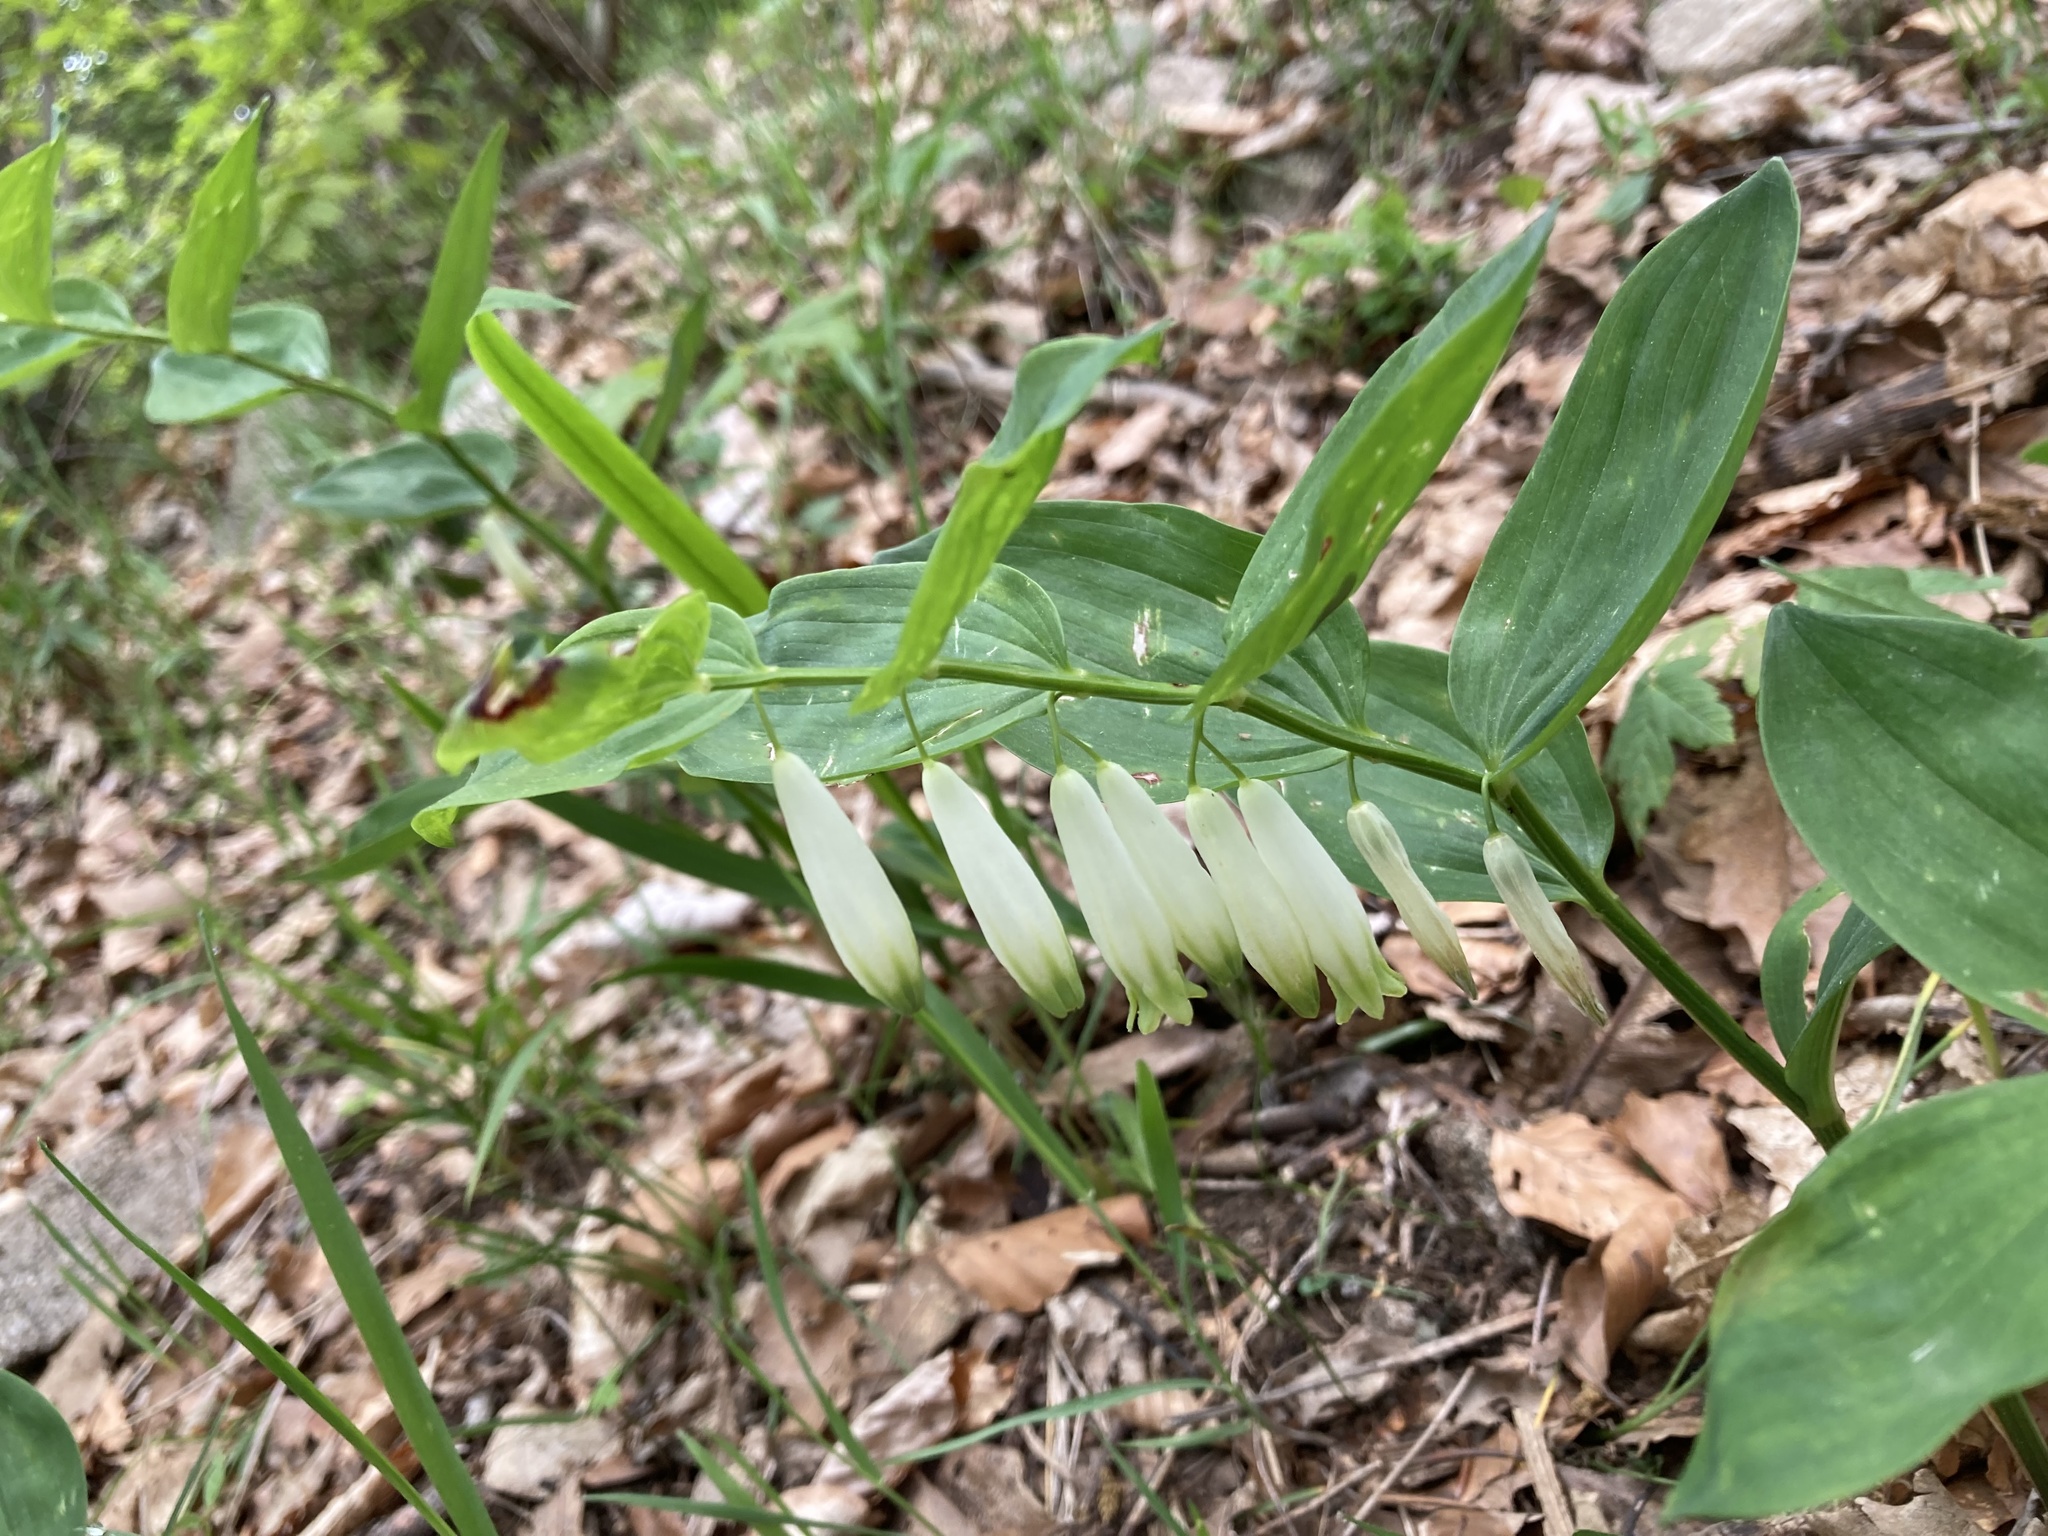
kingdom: Plantae
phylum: Tracheophyta
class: Liliopsida
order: Asparagales
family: Asparagaceae
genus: Polygonatum
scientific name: Polygonatum odoratum
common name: Angular solomon's-seal
